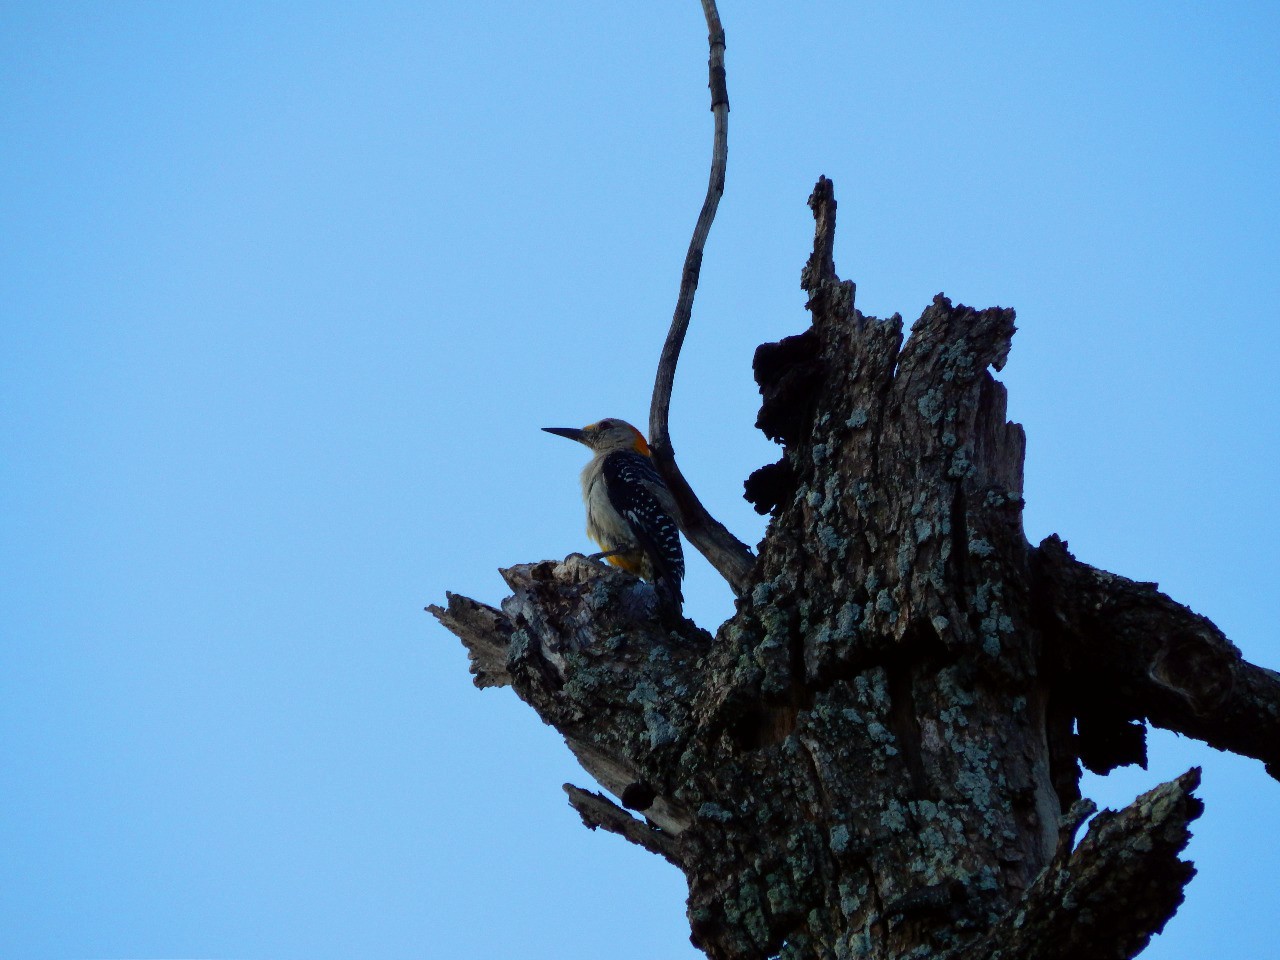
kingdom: Animalia
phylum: Chordata
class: Aves
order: Piciformes
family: Picidae
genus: Melanerpes
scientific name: Melanerpes aurifrons
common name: Golden-fronted woodpecker
